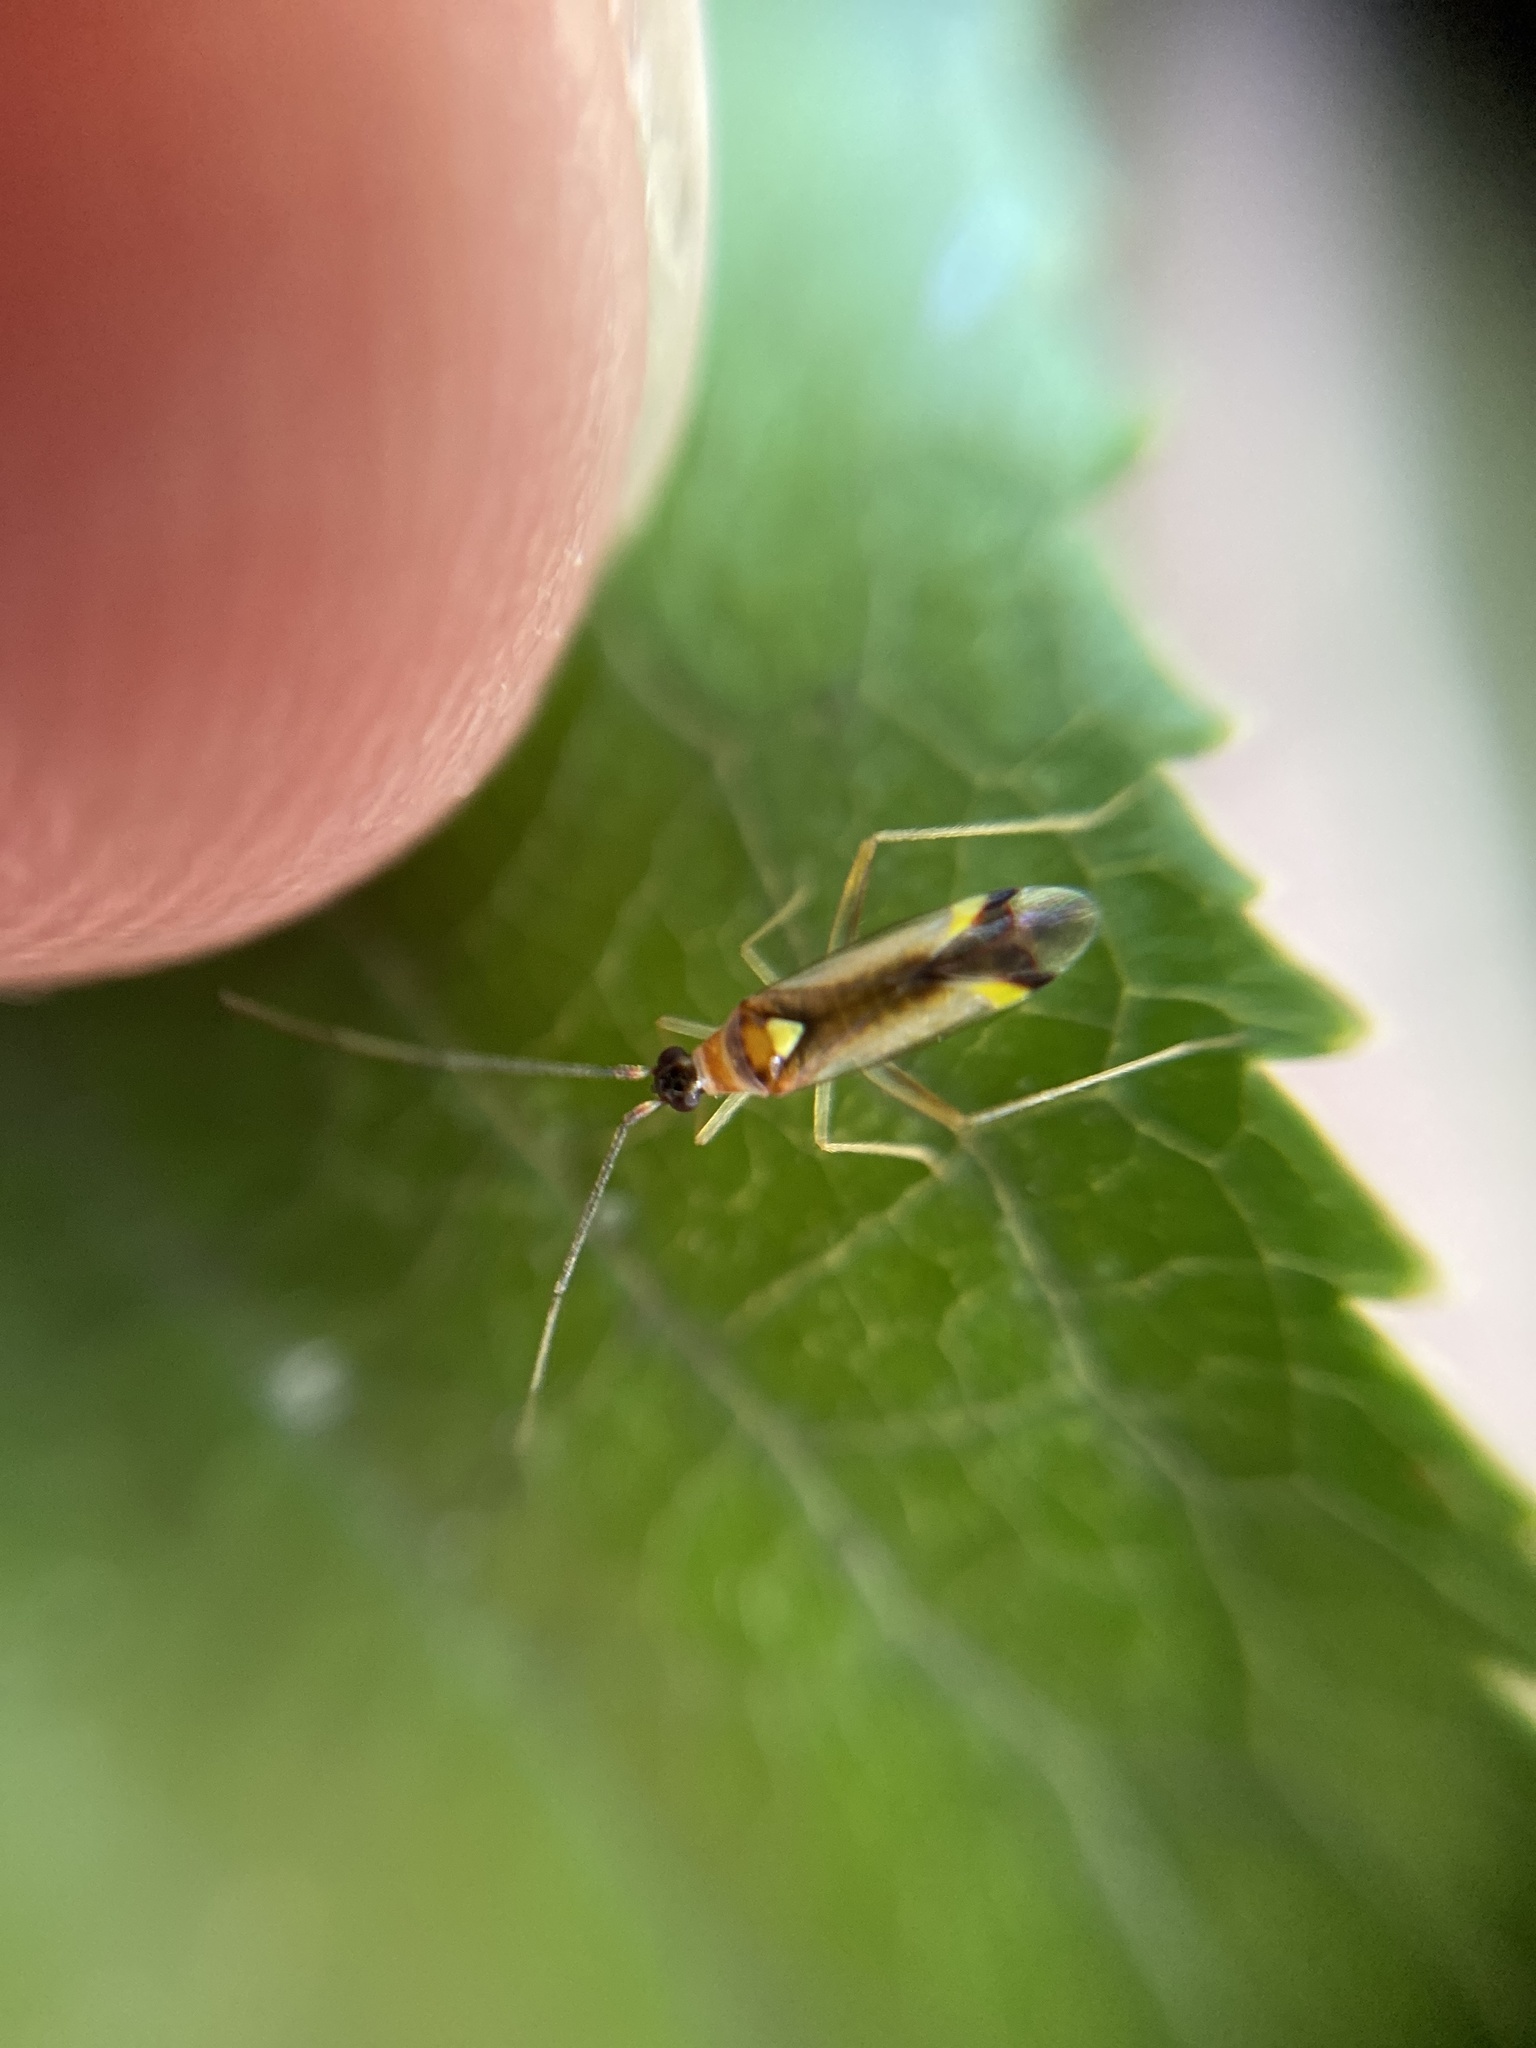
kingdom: Animalia
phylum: Arthropoda
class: Insecta
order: Hemiptera
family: Miridae
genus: Campyloneura
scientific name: Campyloneura virgula
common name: Predatory bug
